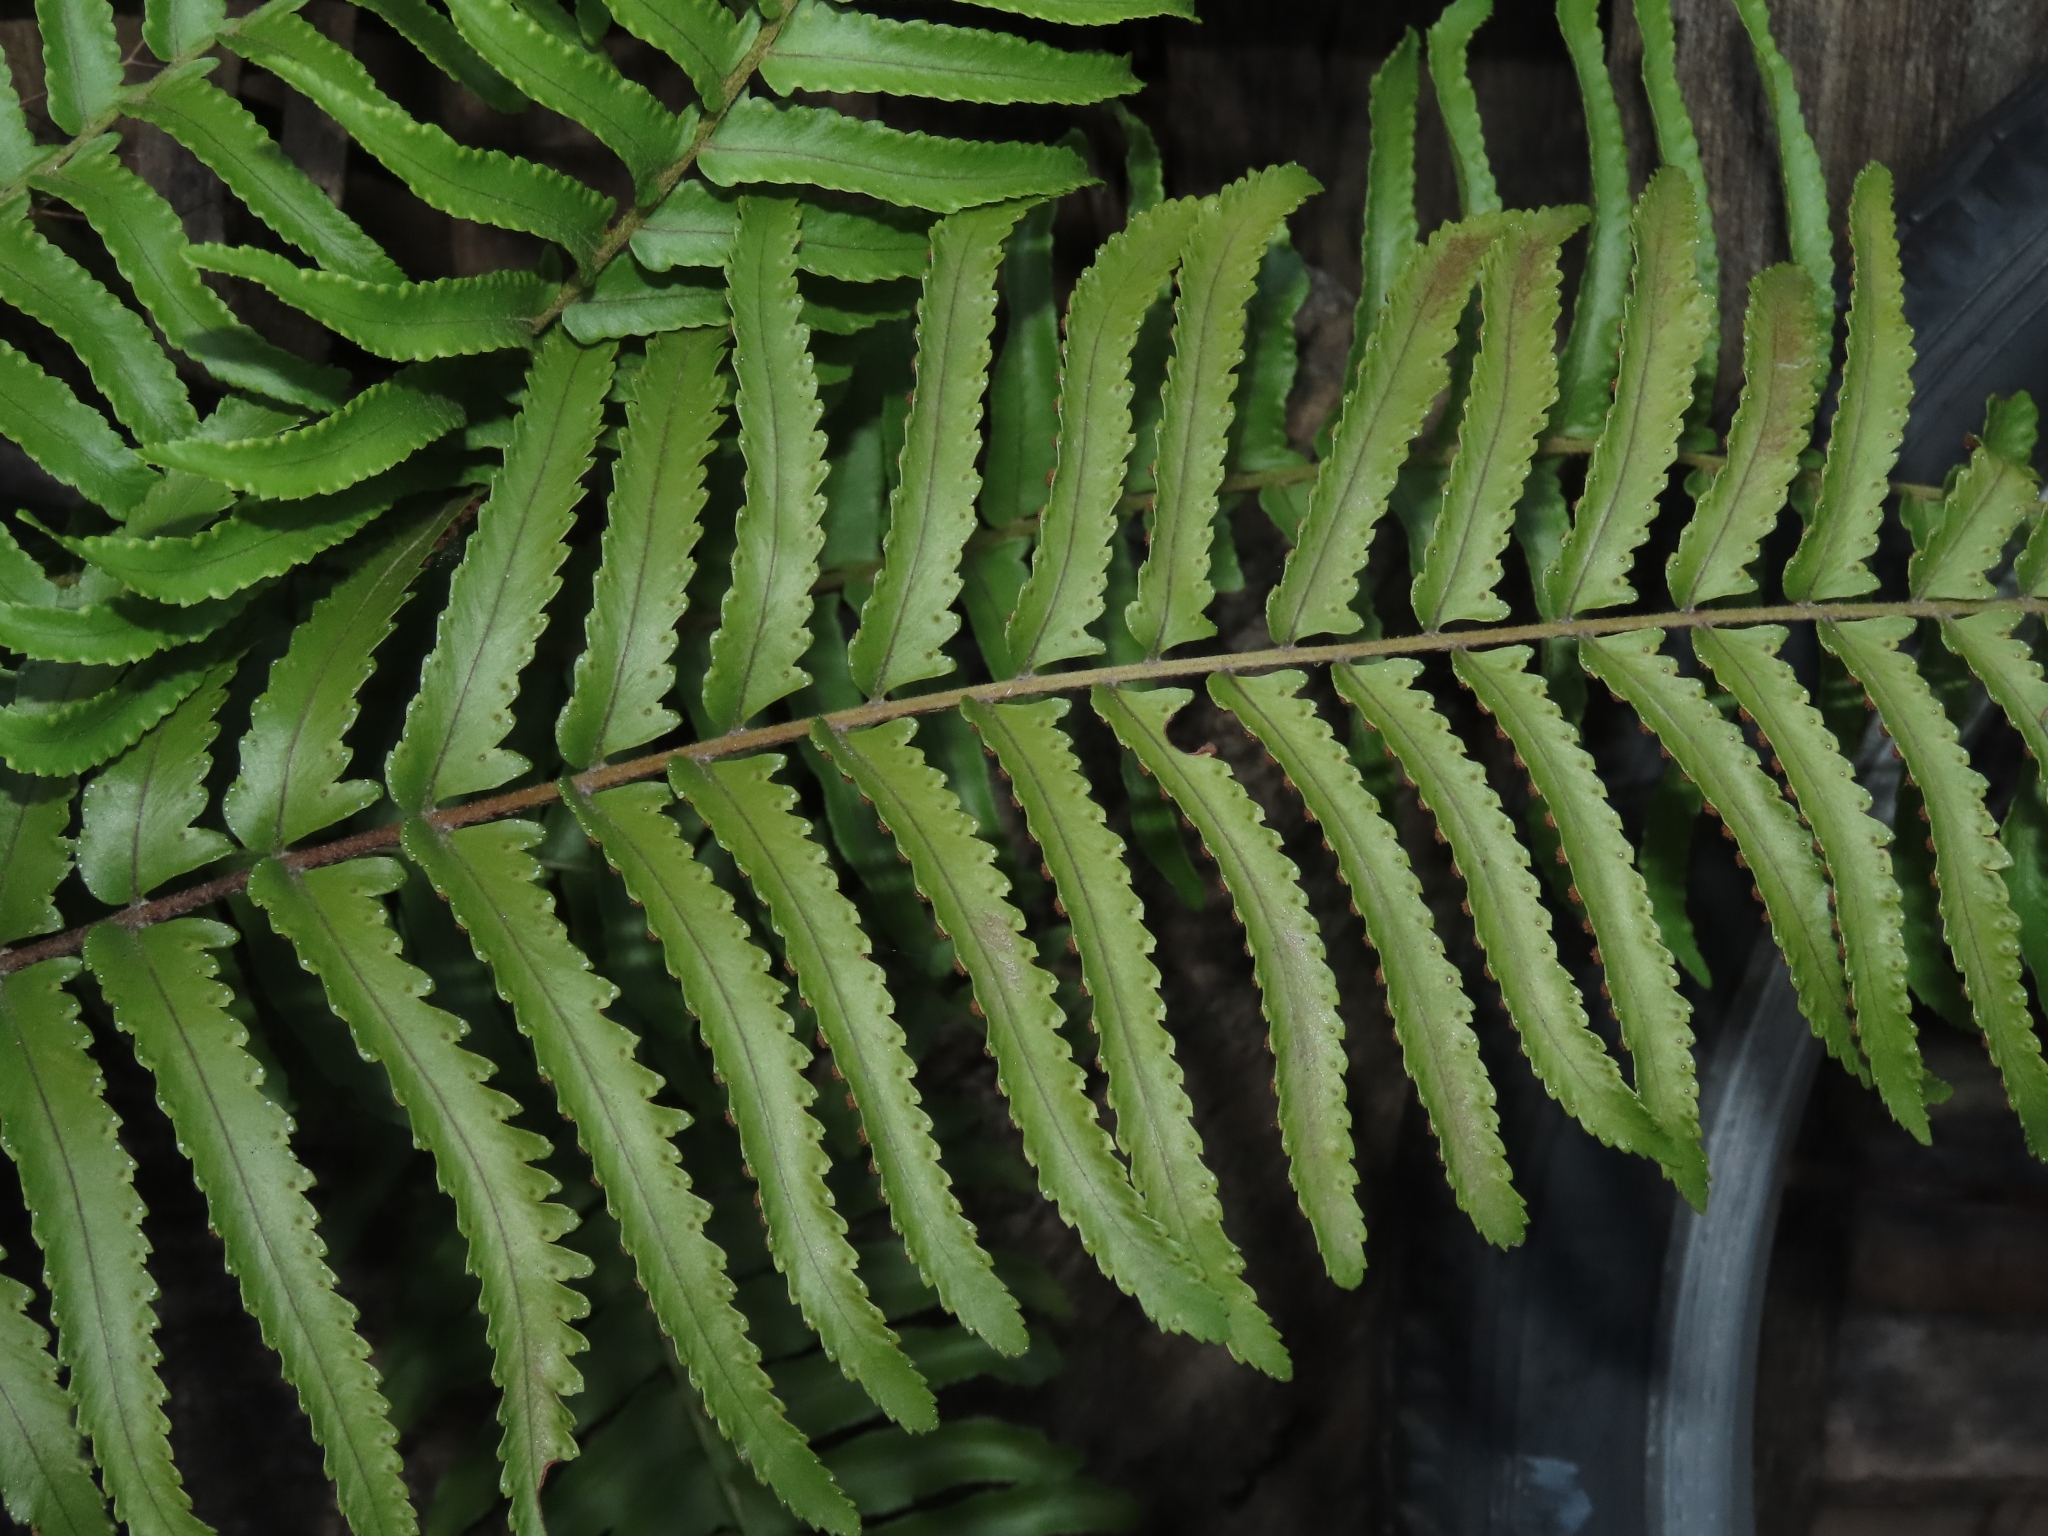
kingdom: Plantae
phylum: Tracheophyta
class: Polypodiopsida
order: Polypodiales
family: Nephrolepidaceae
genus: Nephrolepis
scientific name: Nephrolepis brownii
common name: Asian swordfern
